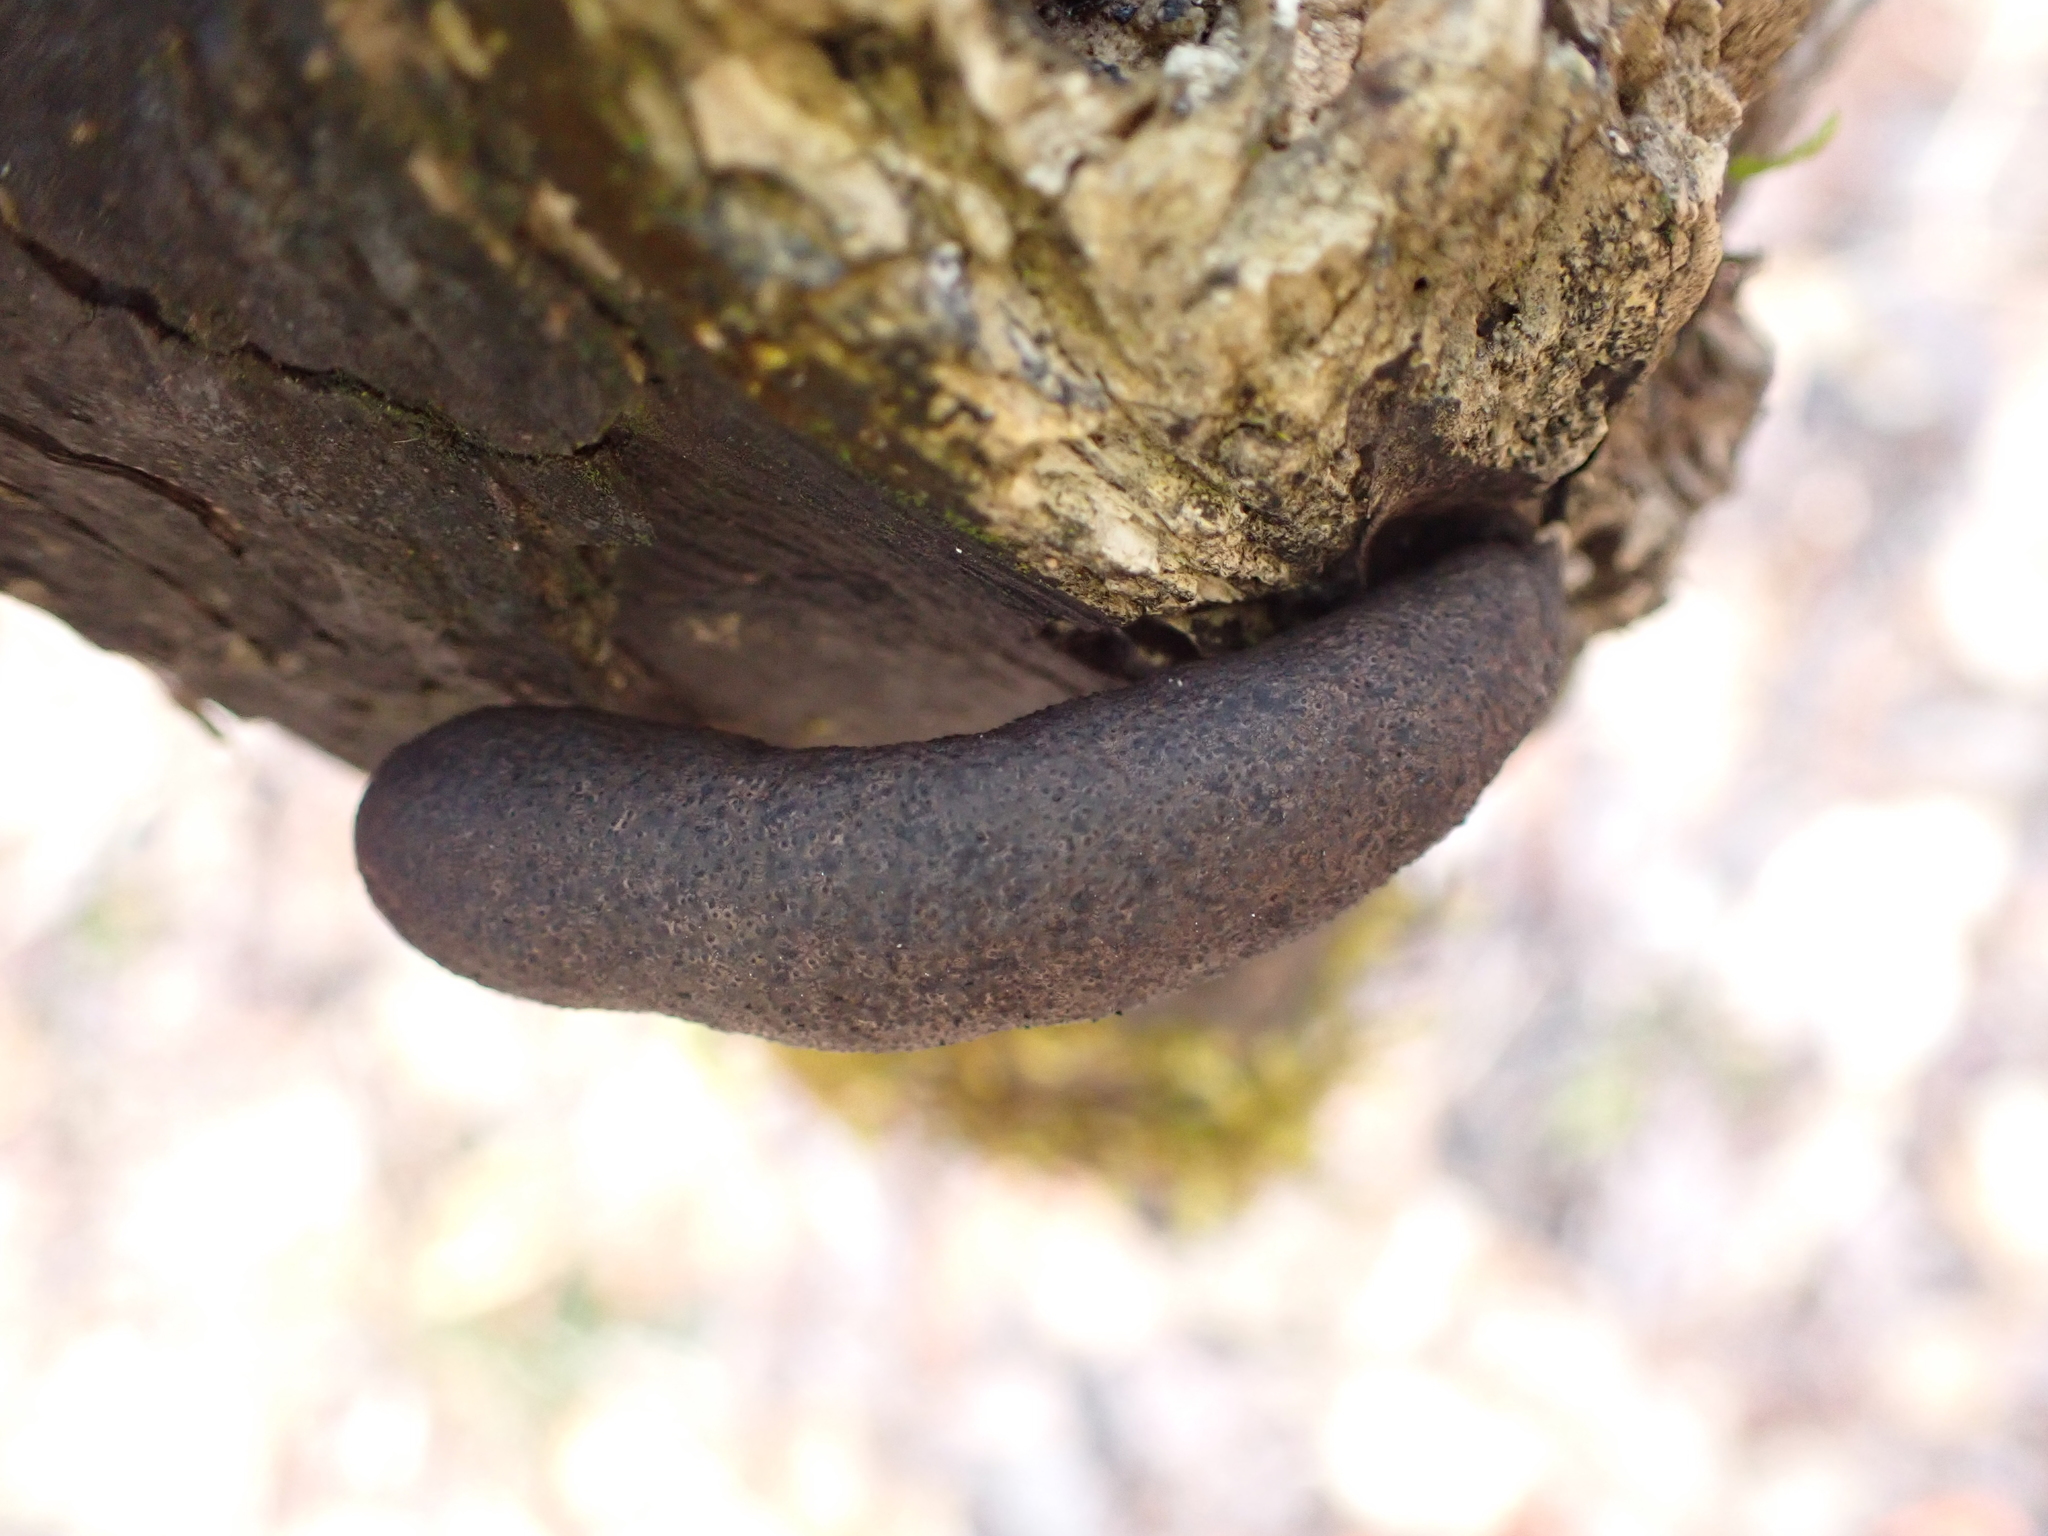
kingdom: Fungi
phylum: Ascomycota
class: Sordariomycetes
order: Xylariales
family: Xylariaceae
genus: Xylaria
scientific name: Xylaria polymorpha
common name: Dead man's fingers
